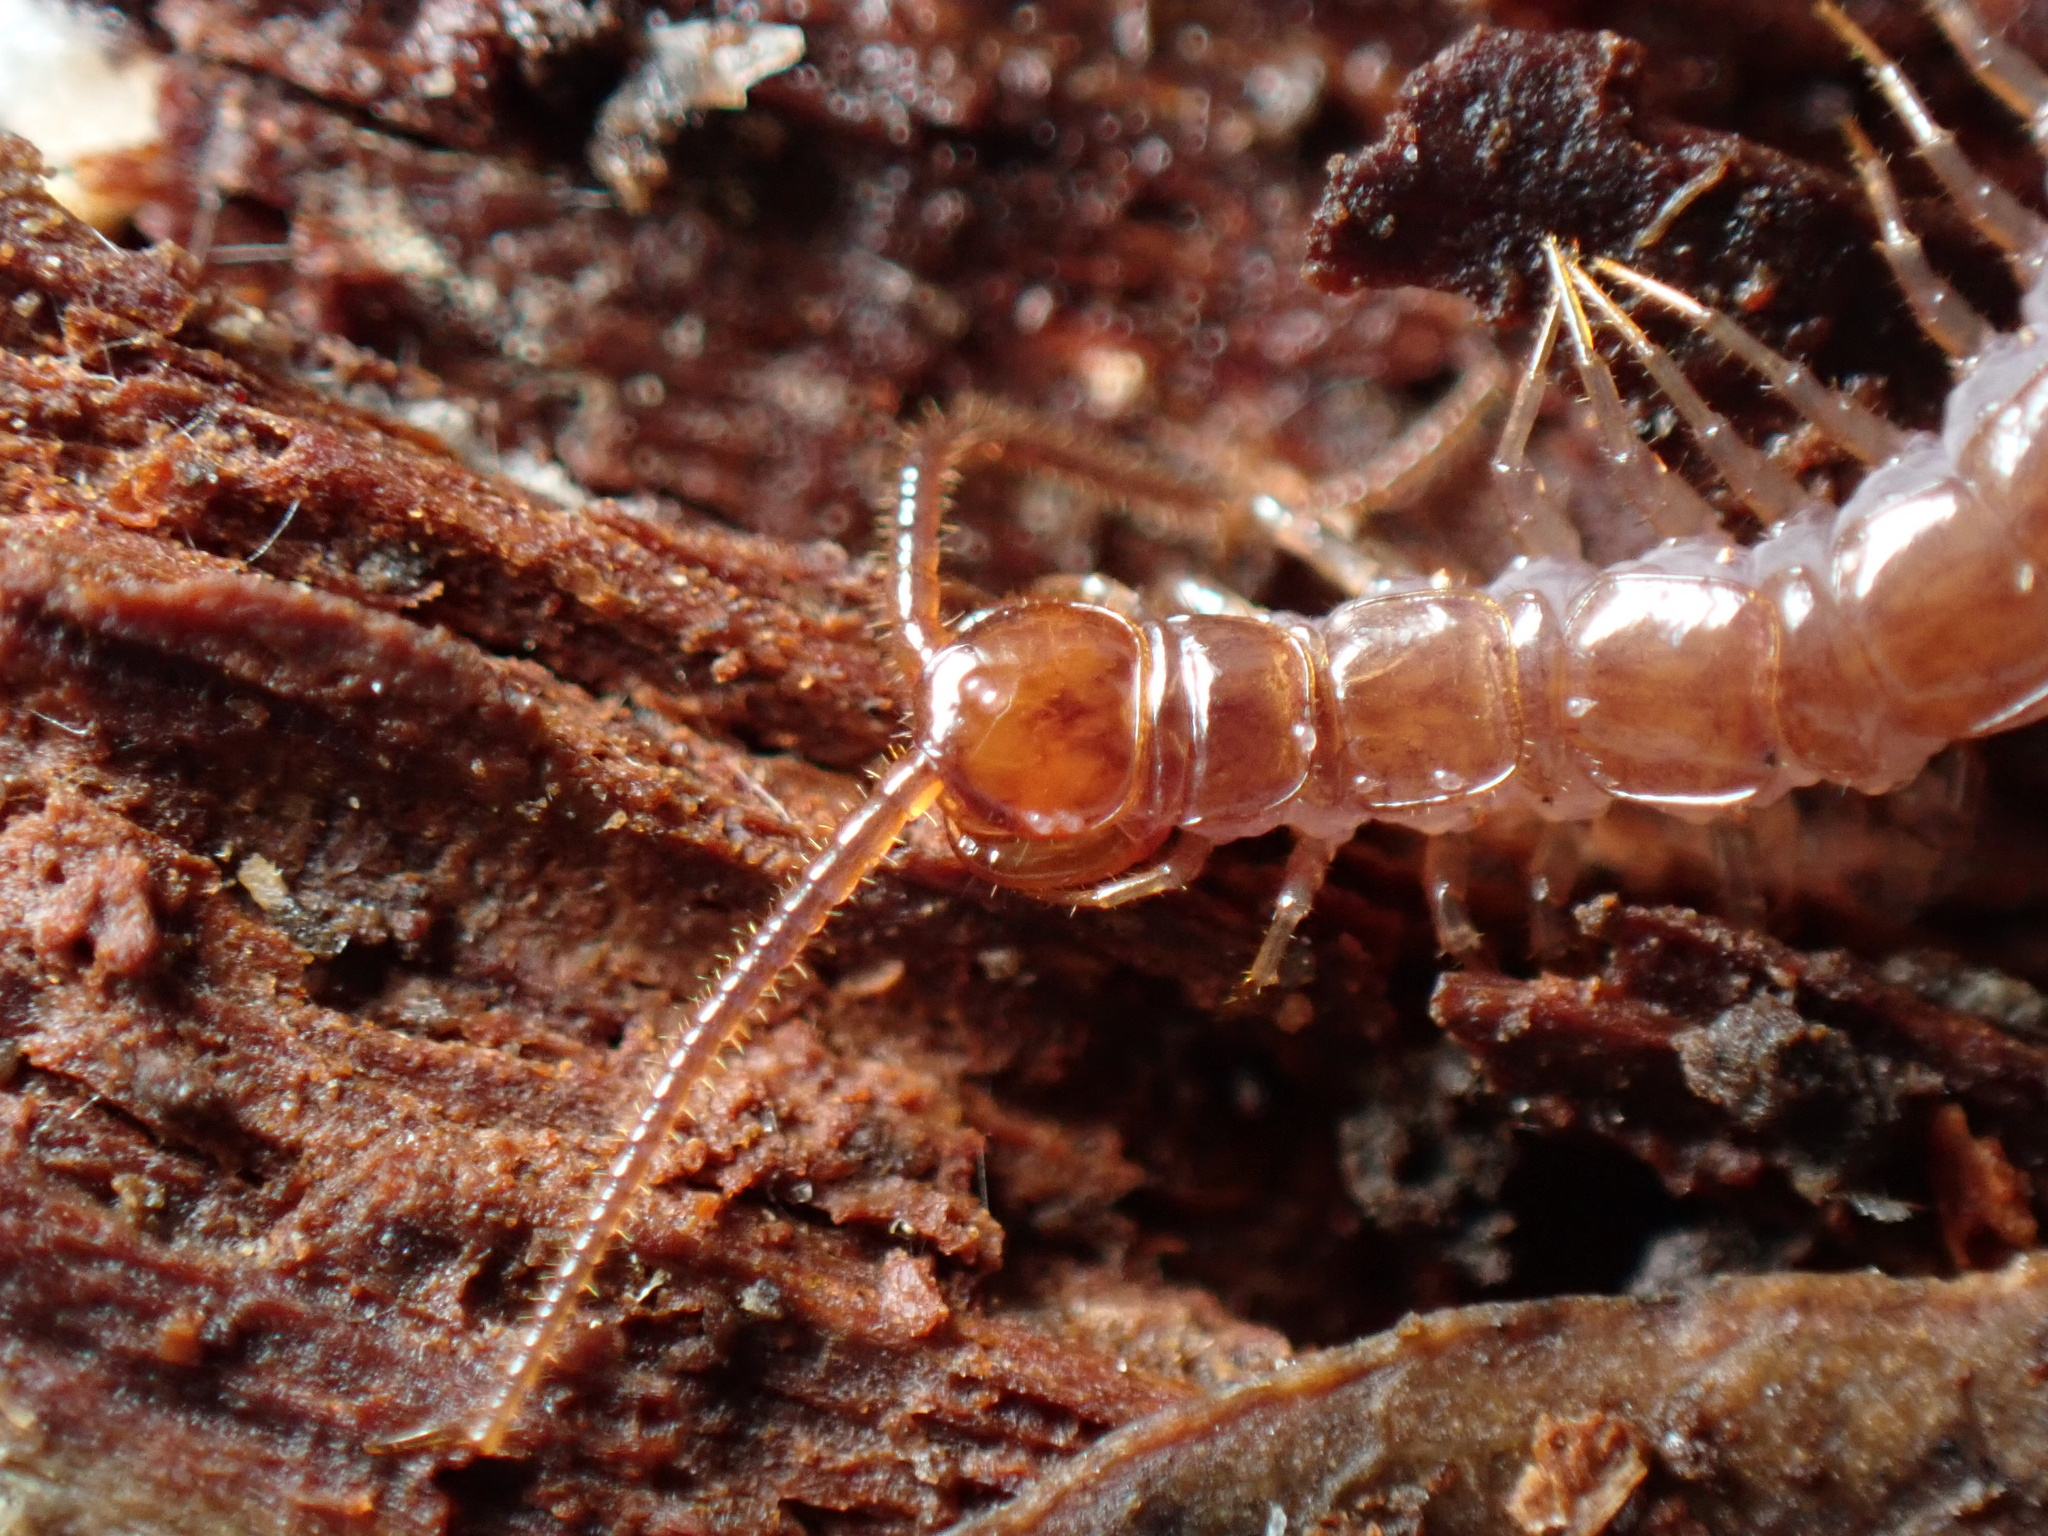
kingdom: Animalia
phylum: Arthropoda
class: Chilopoda
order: Lithobiomorpha
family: Lithobiidae
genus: Lithobius
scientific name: Lithobius forficatus
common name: Centipede
